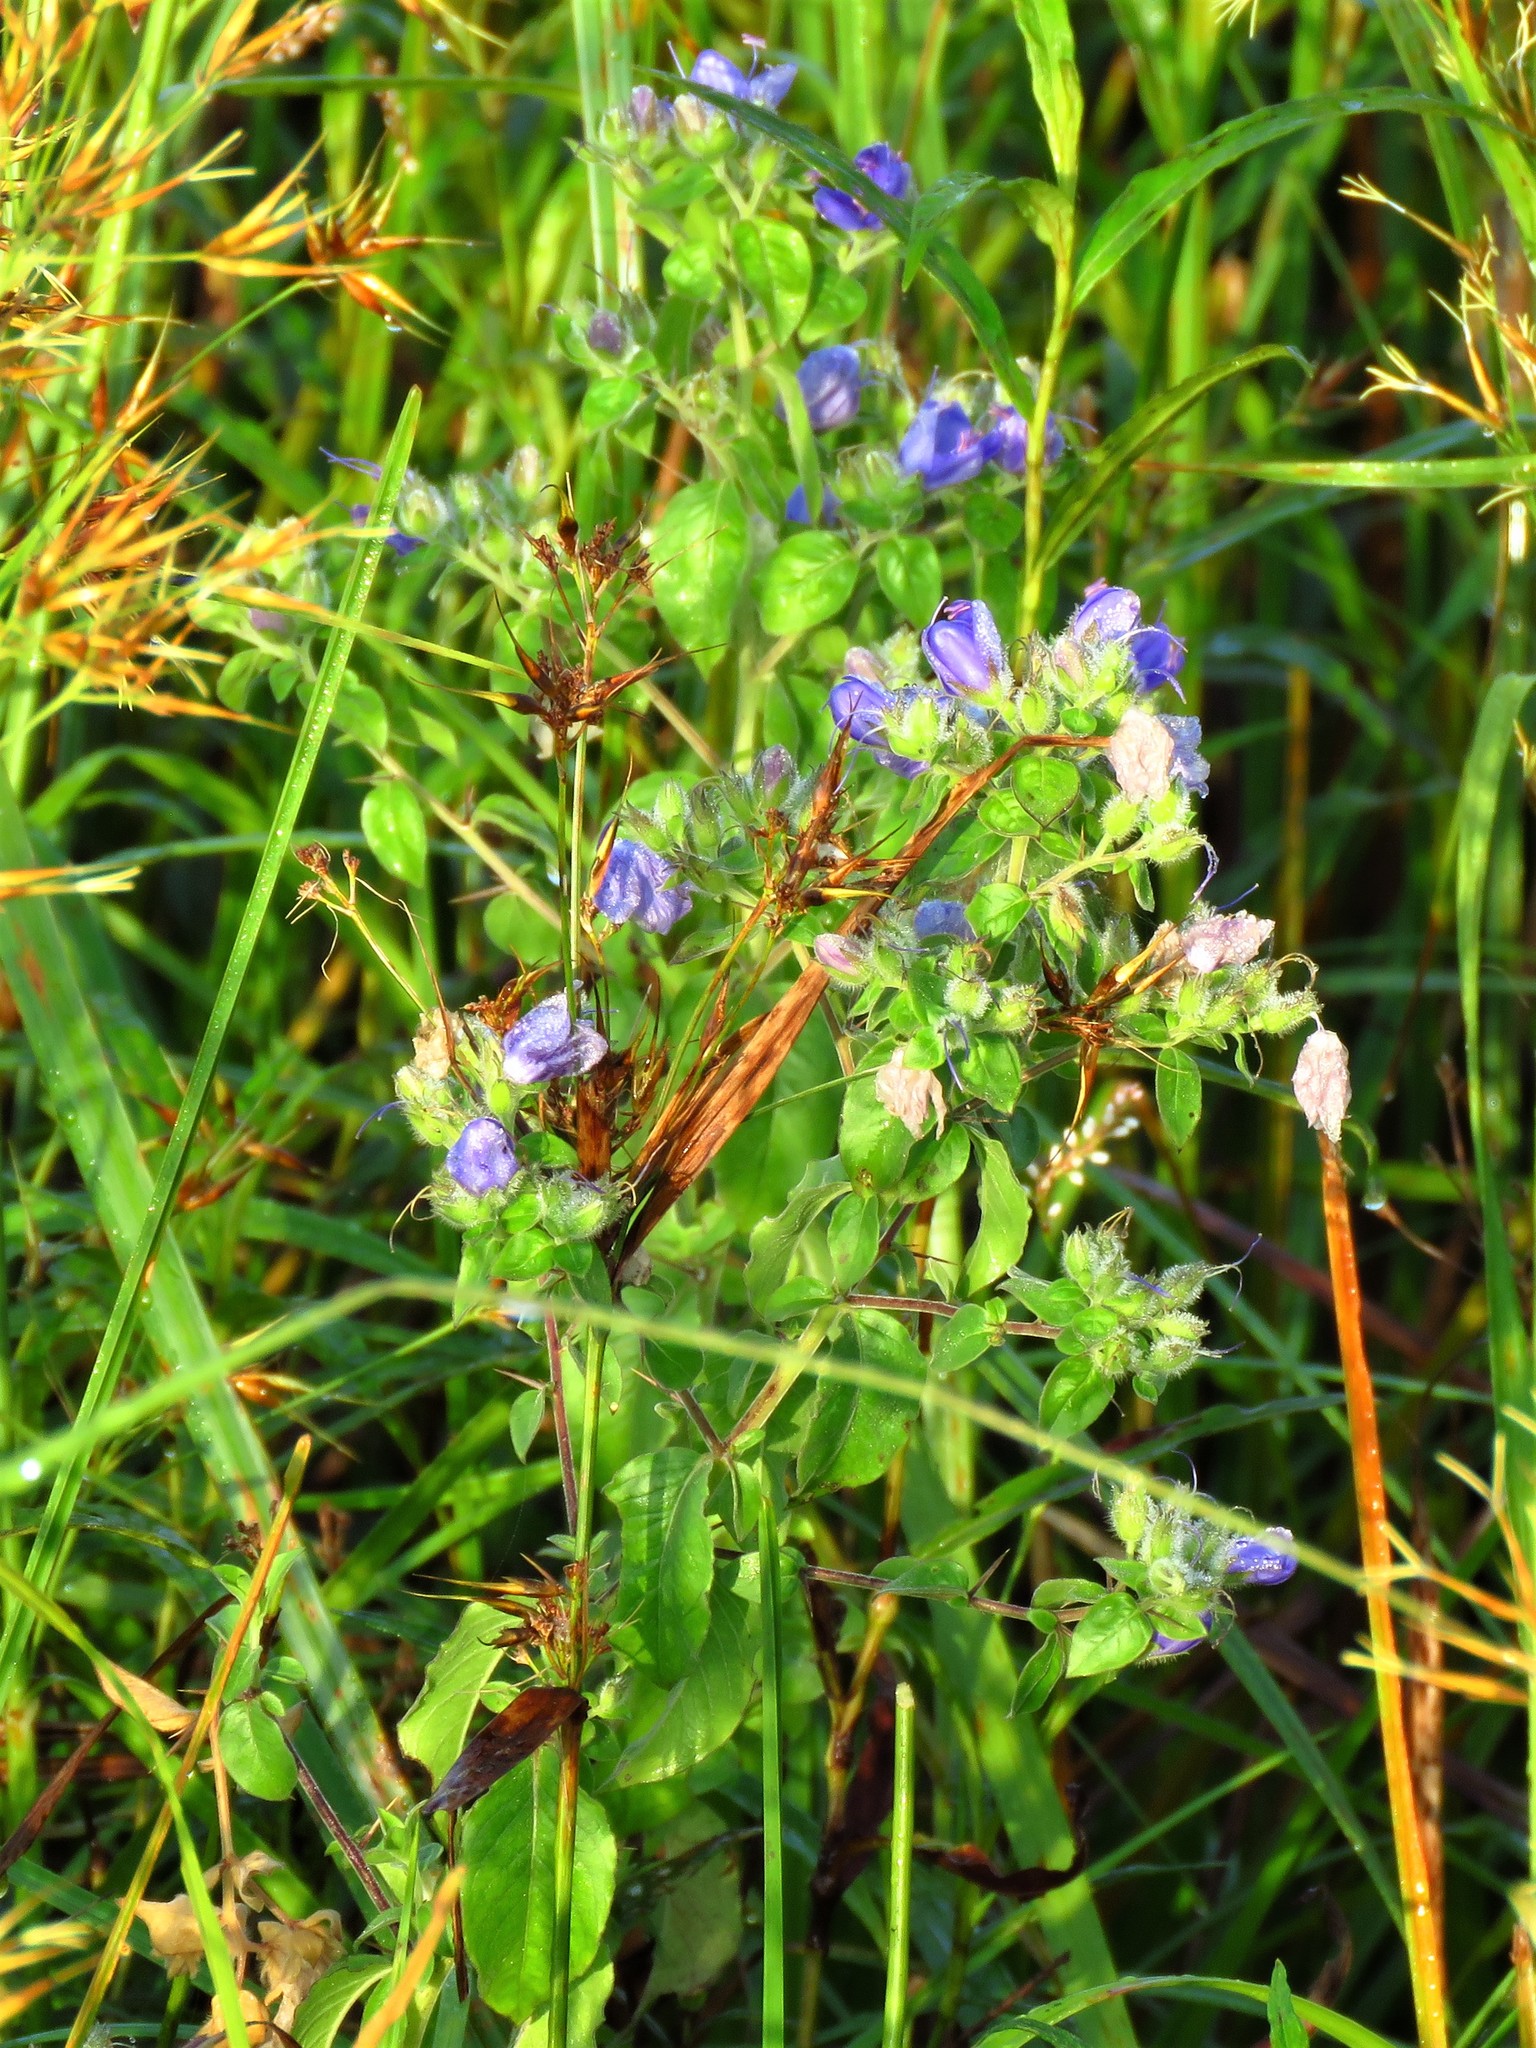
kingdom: Plantae
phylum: Tracheophyta
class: Magnoliopsida
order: Solanales
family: Hydroleaceae
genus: Hydrolea
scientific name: Hydrolea ovata
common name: Ovate false fiddleleaf
